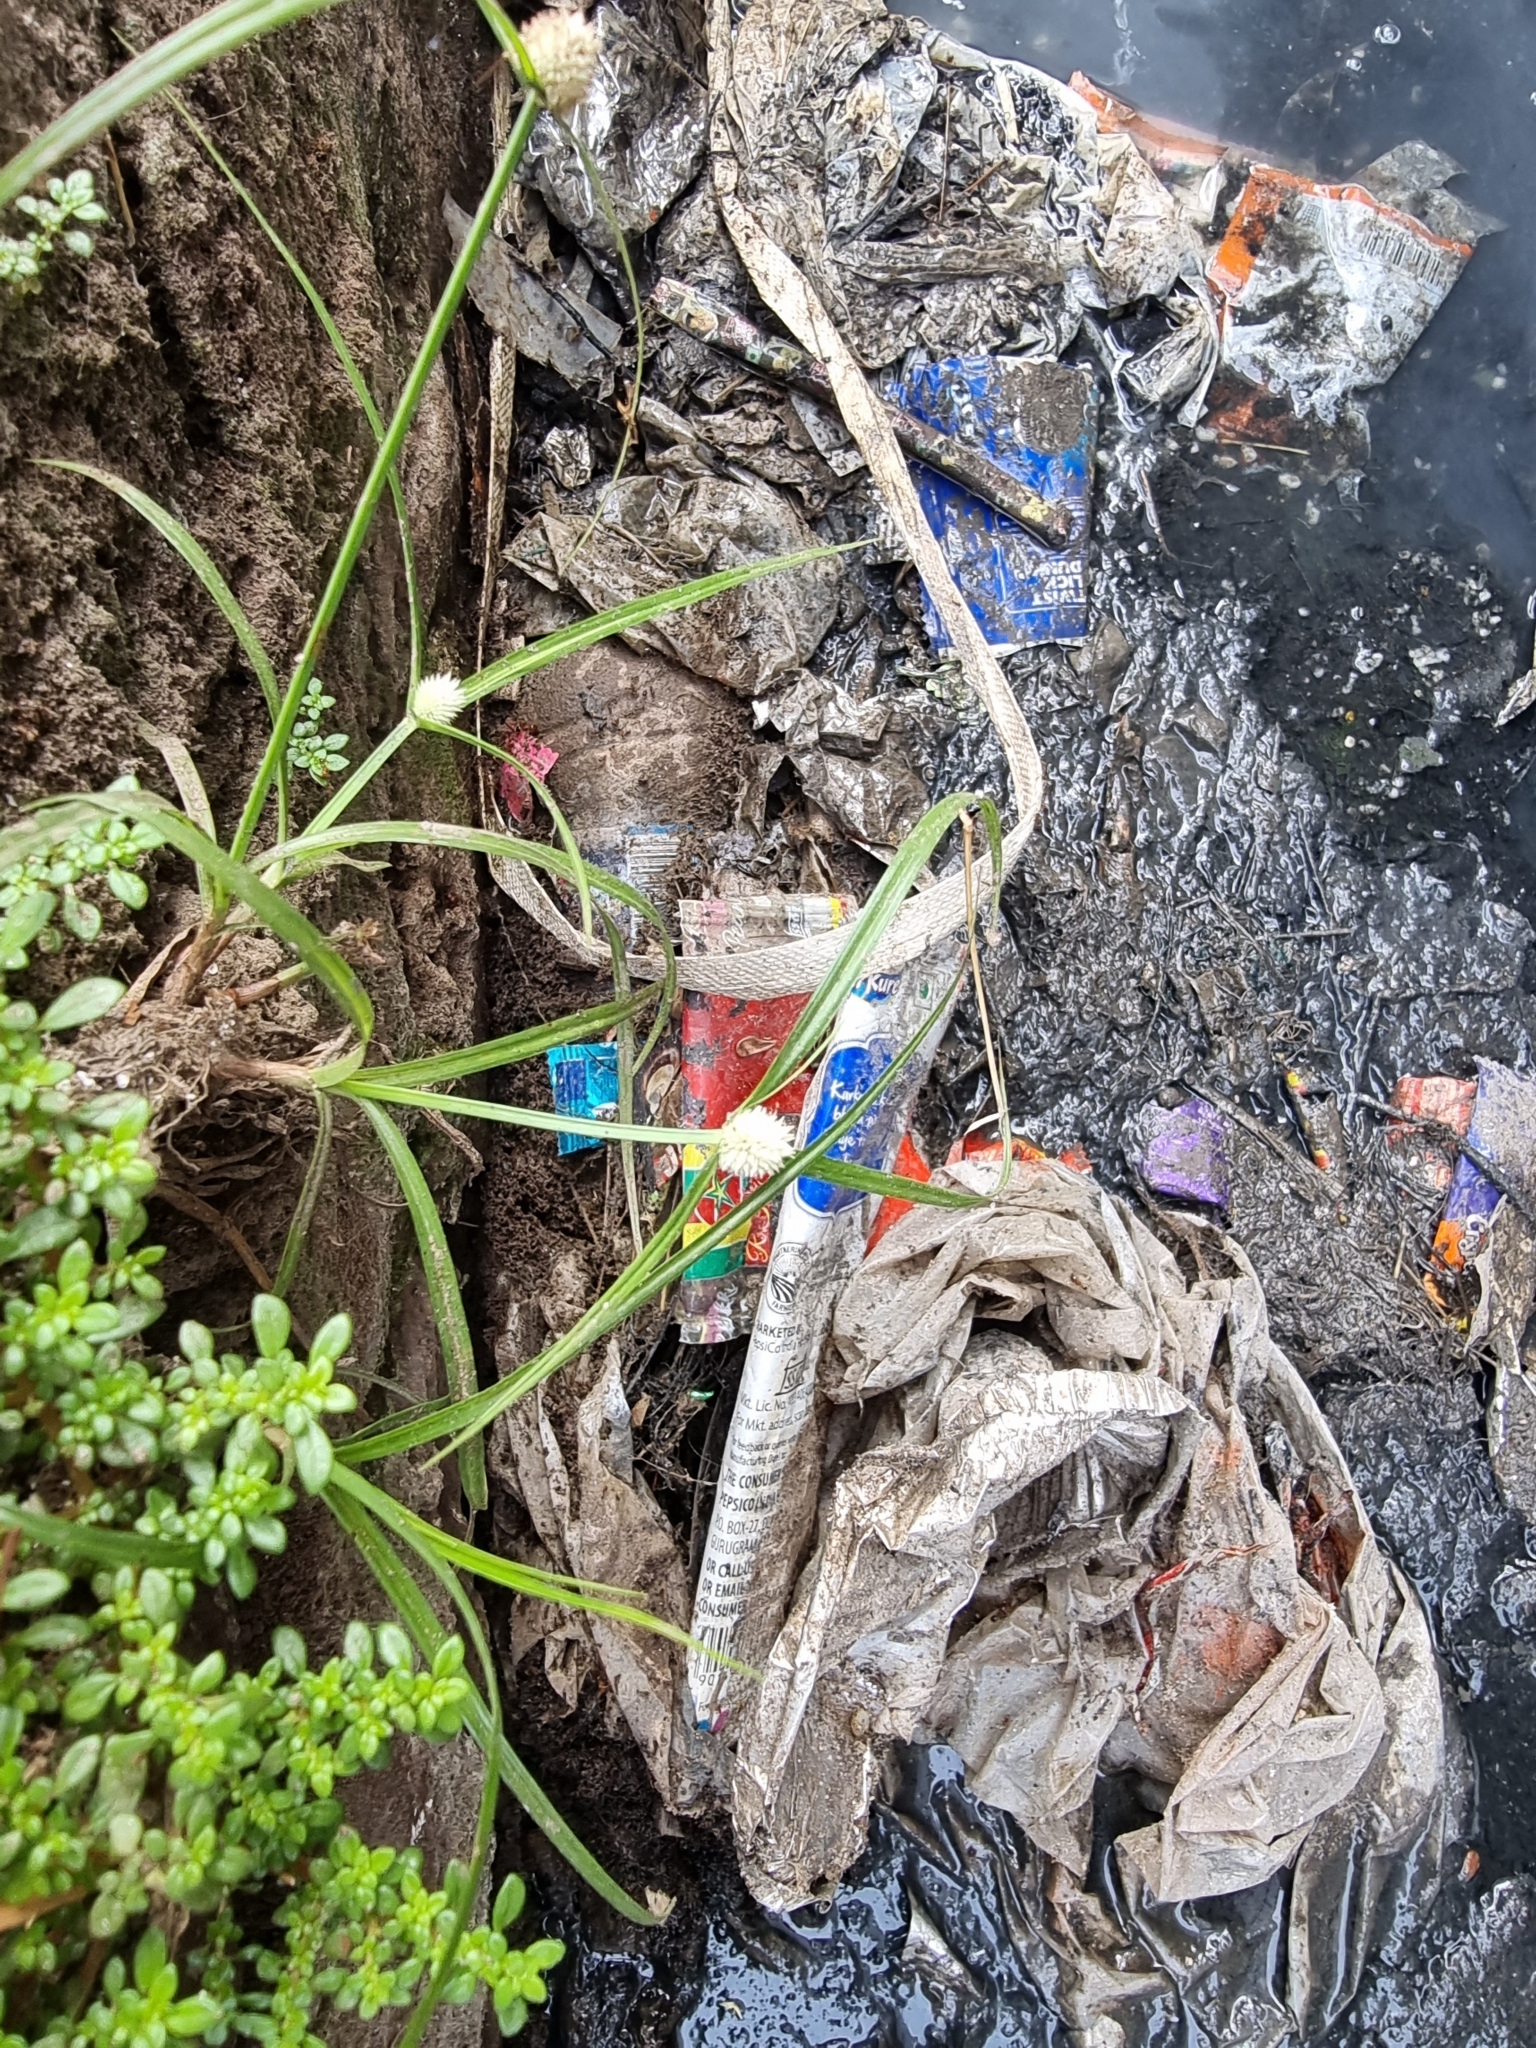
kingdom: Plantae
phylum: Tracheophyta
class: Liliopsida
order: Poales
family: Cyperaceae
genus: Cyperus
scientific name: Cyperus mindorensis
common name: Flatsedge
